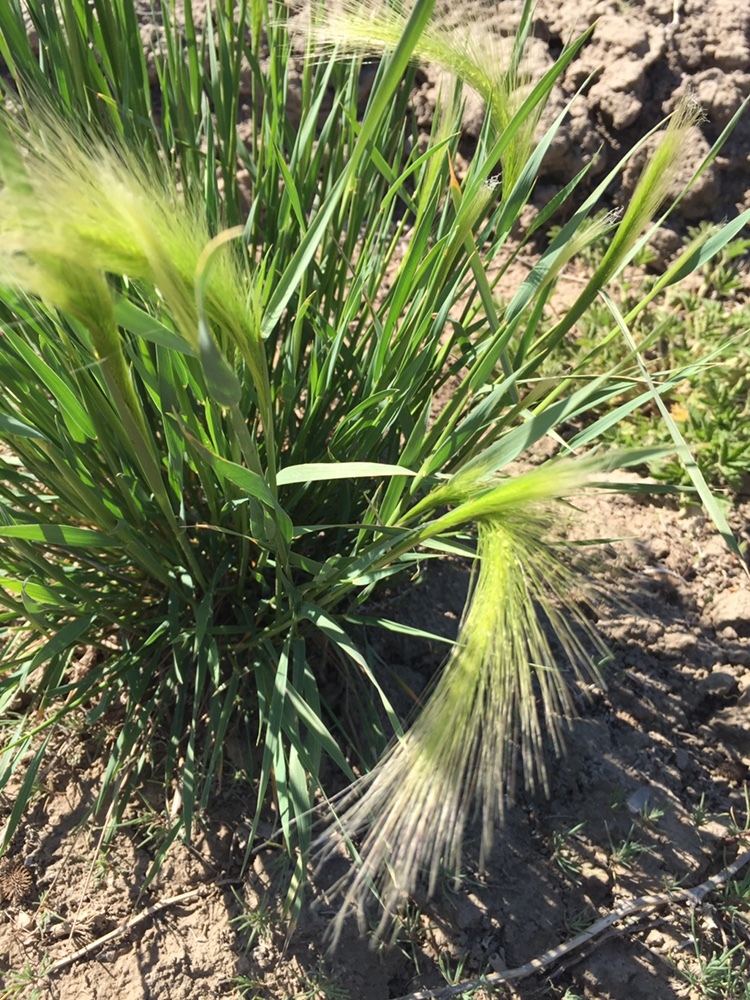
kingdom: Plantae
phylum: Tracheophyta
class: Liliopsida
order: Poales
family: Poaceae
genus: Hordeum
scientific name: Hordeum jubatum
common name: Foxtail barley
